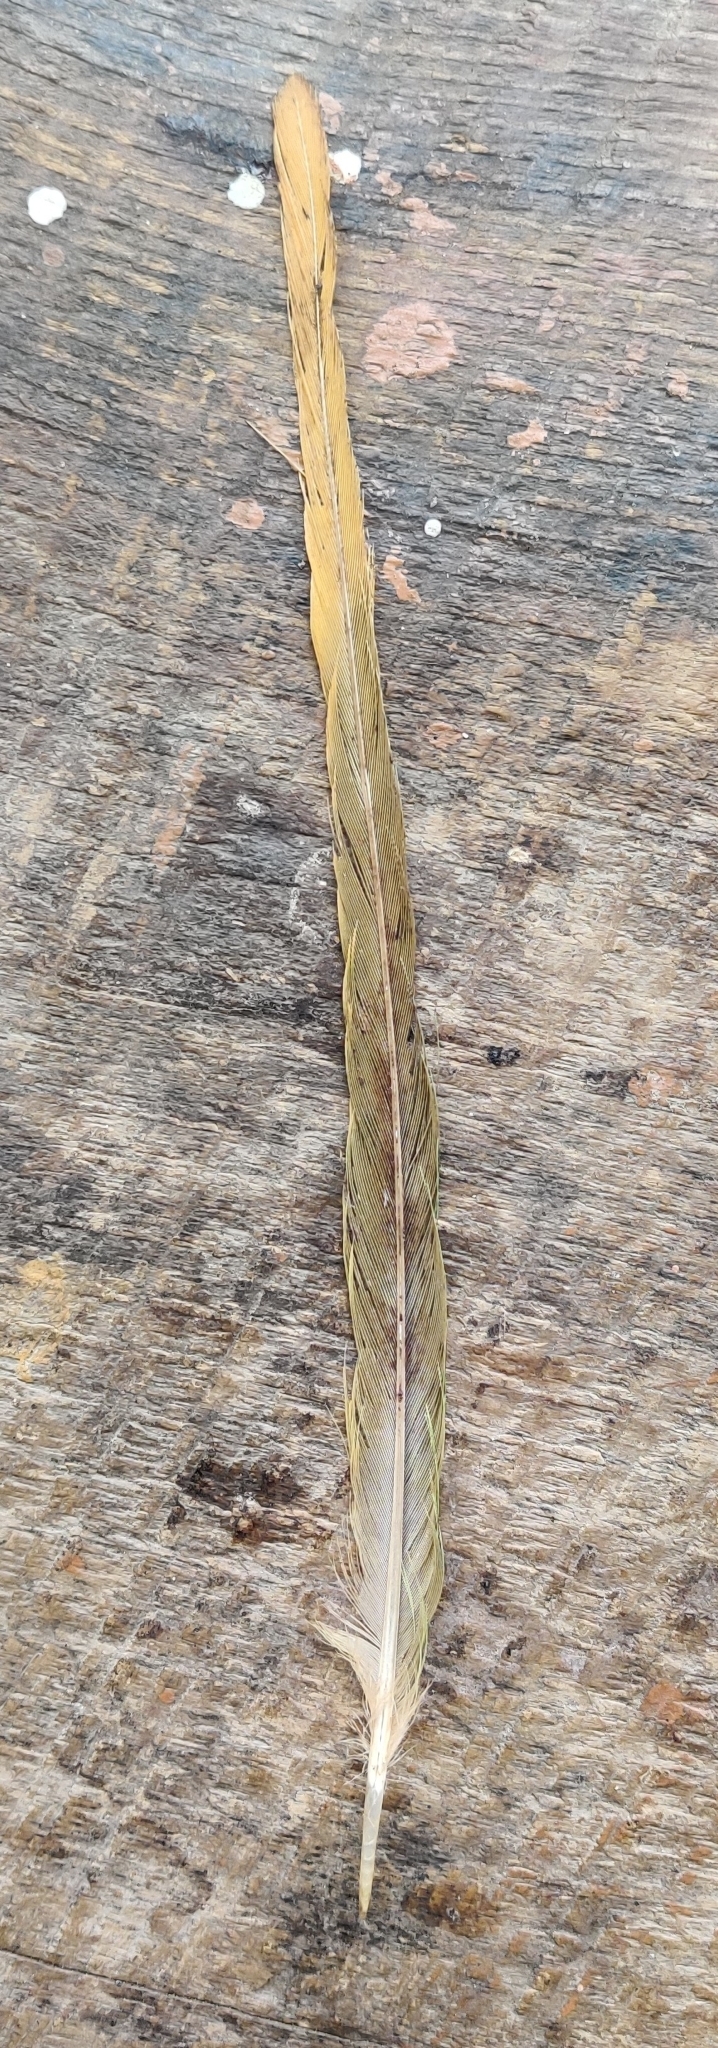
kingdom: Animalia
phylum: Chordata
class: Aves
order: Psittaciformes
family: Psittacidae
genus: Psittacula
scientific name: Psittacula himalayana
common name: Slaty-headed parakeet
